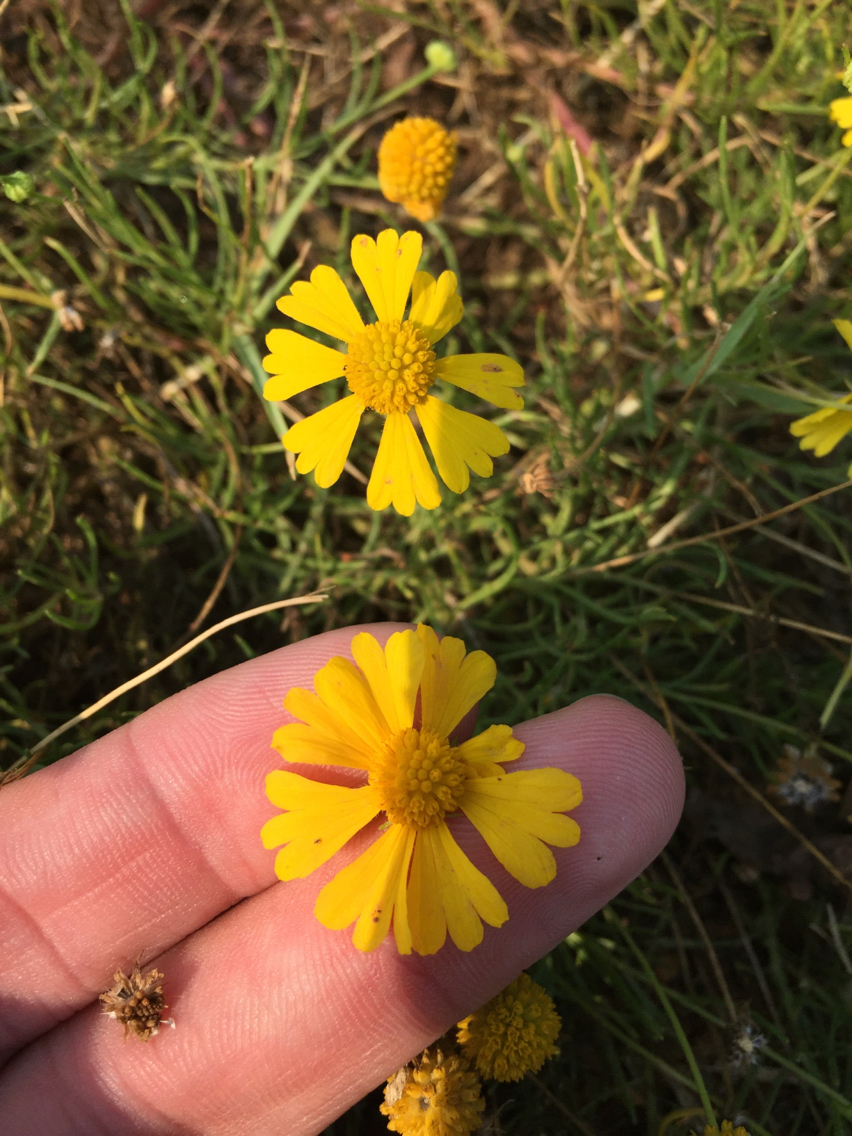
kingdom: Plantae
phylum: Tracheophyta
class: Magnoliopsida
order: Asterales
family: Asteraceae
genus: Helenium
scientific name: Helenium amarum
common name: Bitter sneezeweed
